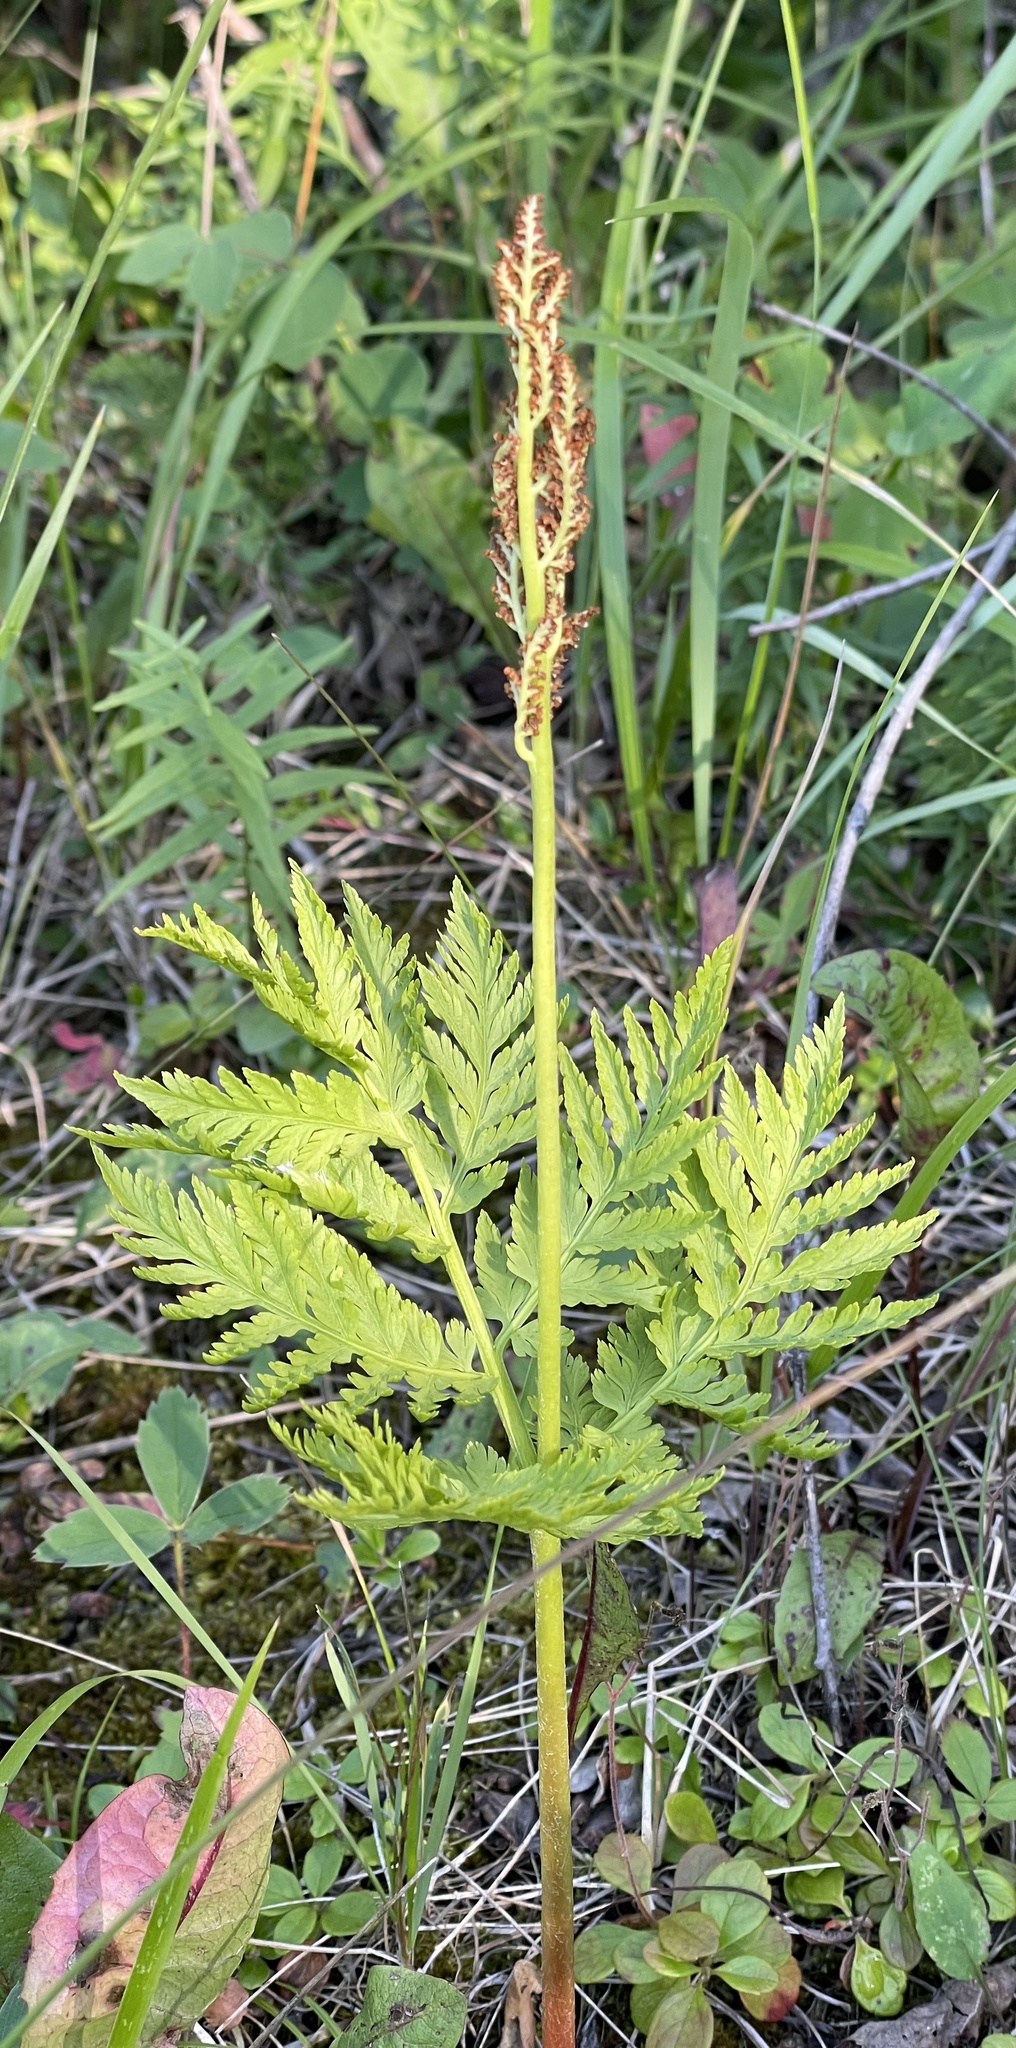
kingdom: Plantae
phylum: Tracheophyta
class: Polypodiopsida
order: Ophioglossales
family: Ophioglossaceae
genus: Botrypus
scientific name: Botrypus virginianus
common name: Common grapefern
